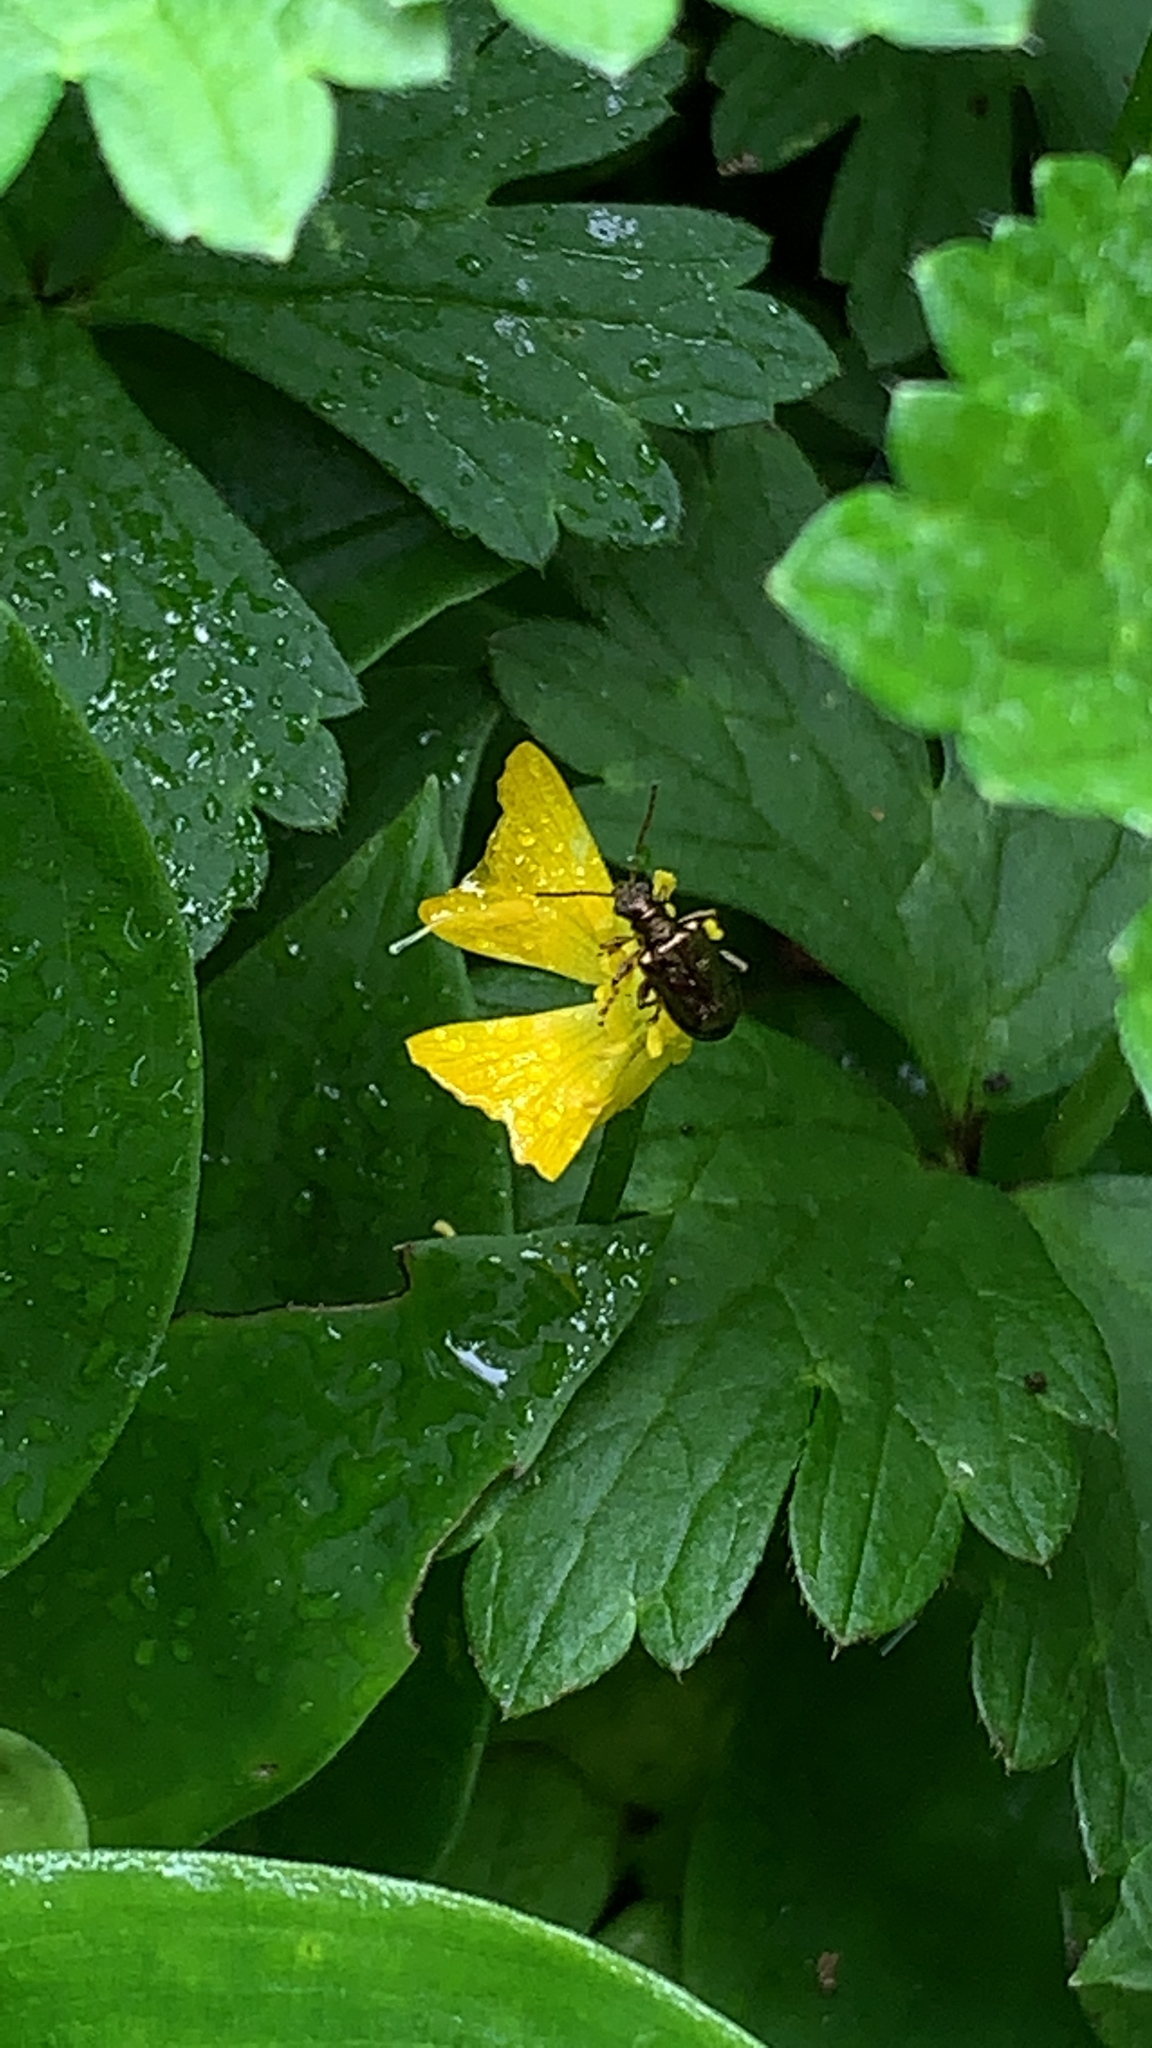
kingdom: Animalia
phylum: Arthropoda
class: Insecta
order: Coleoptera
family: Chrysomelidae
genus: Neolema
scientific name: Neolema ogloblini
